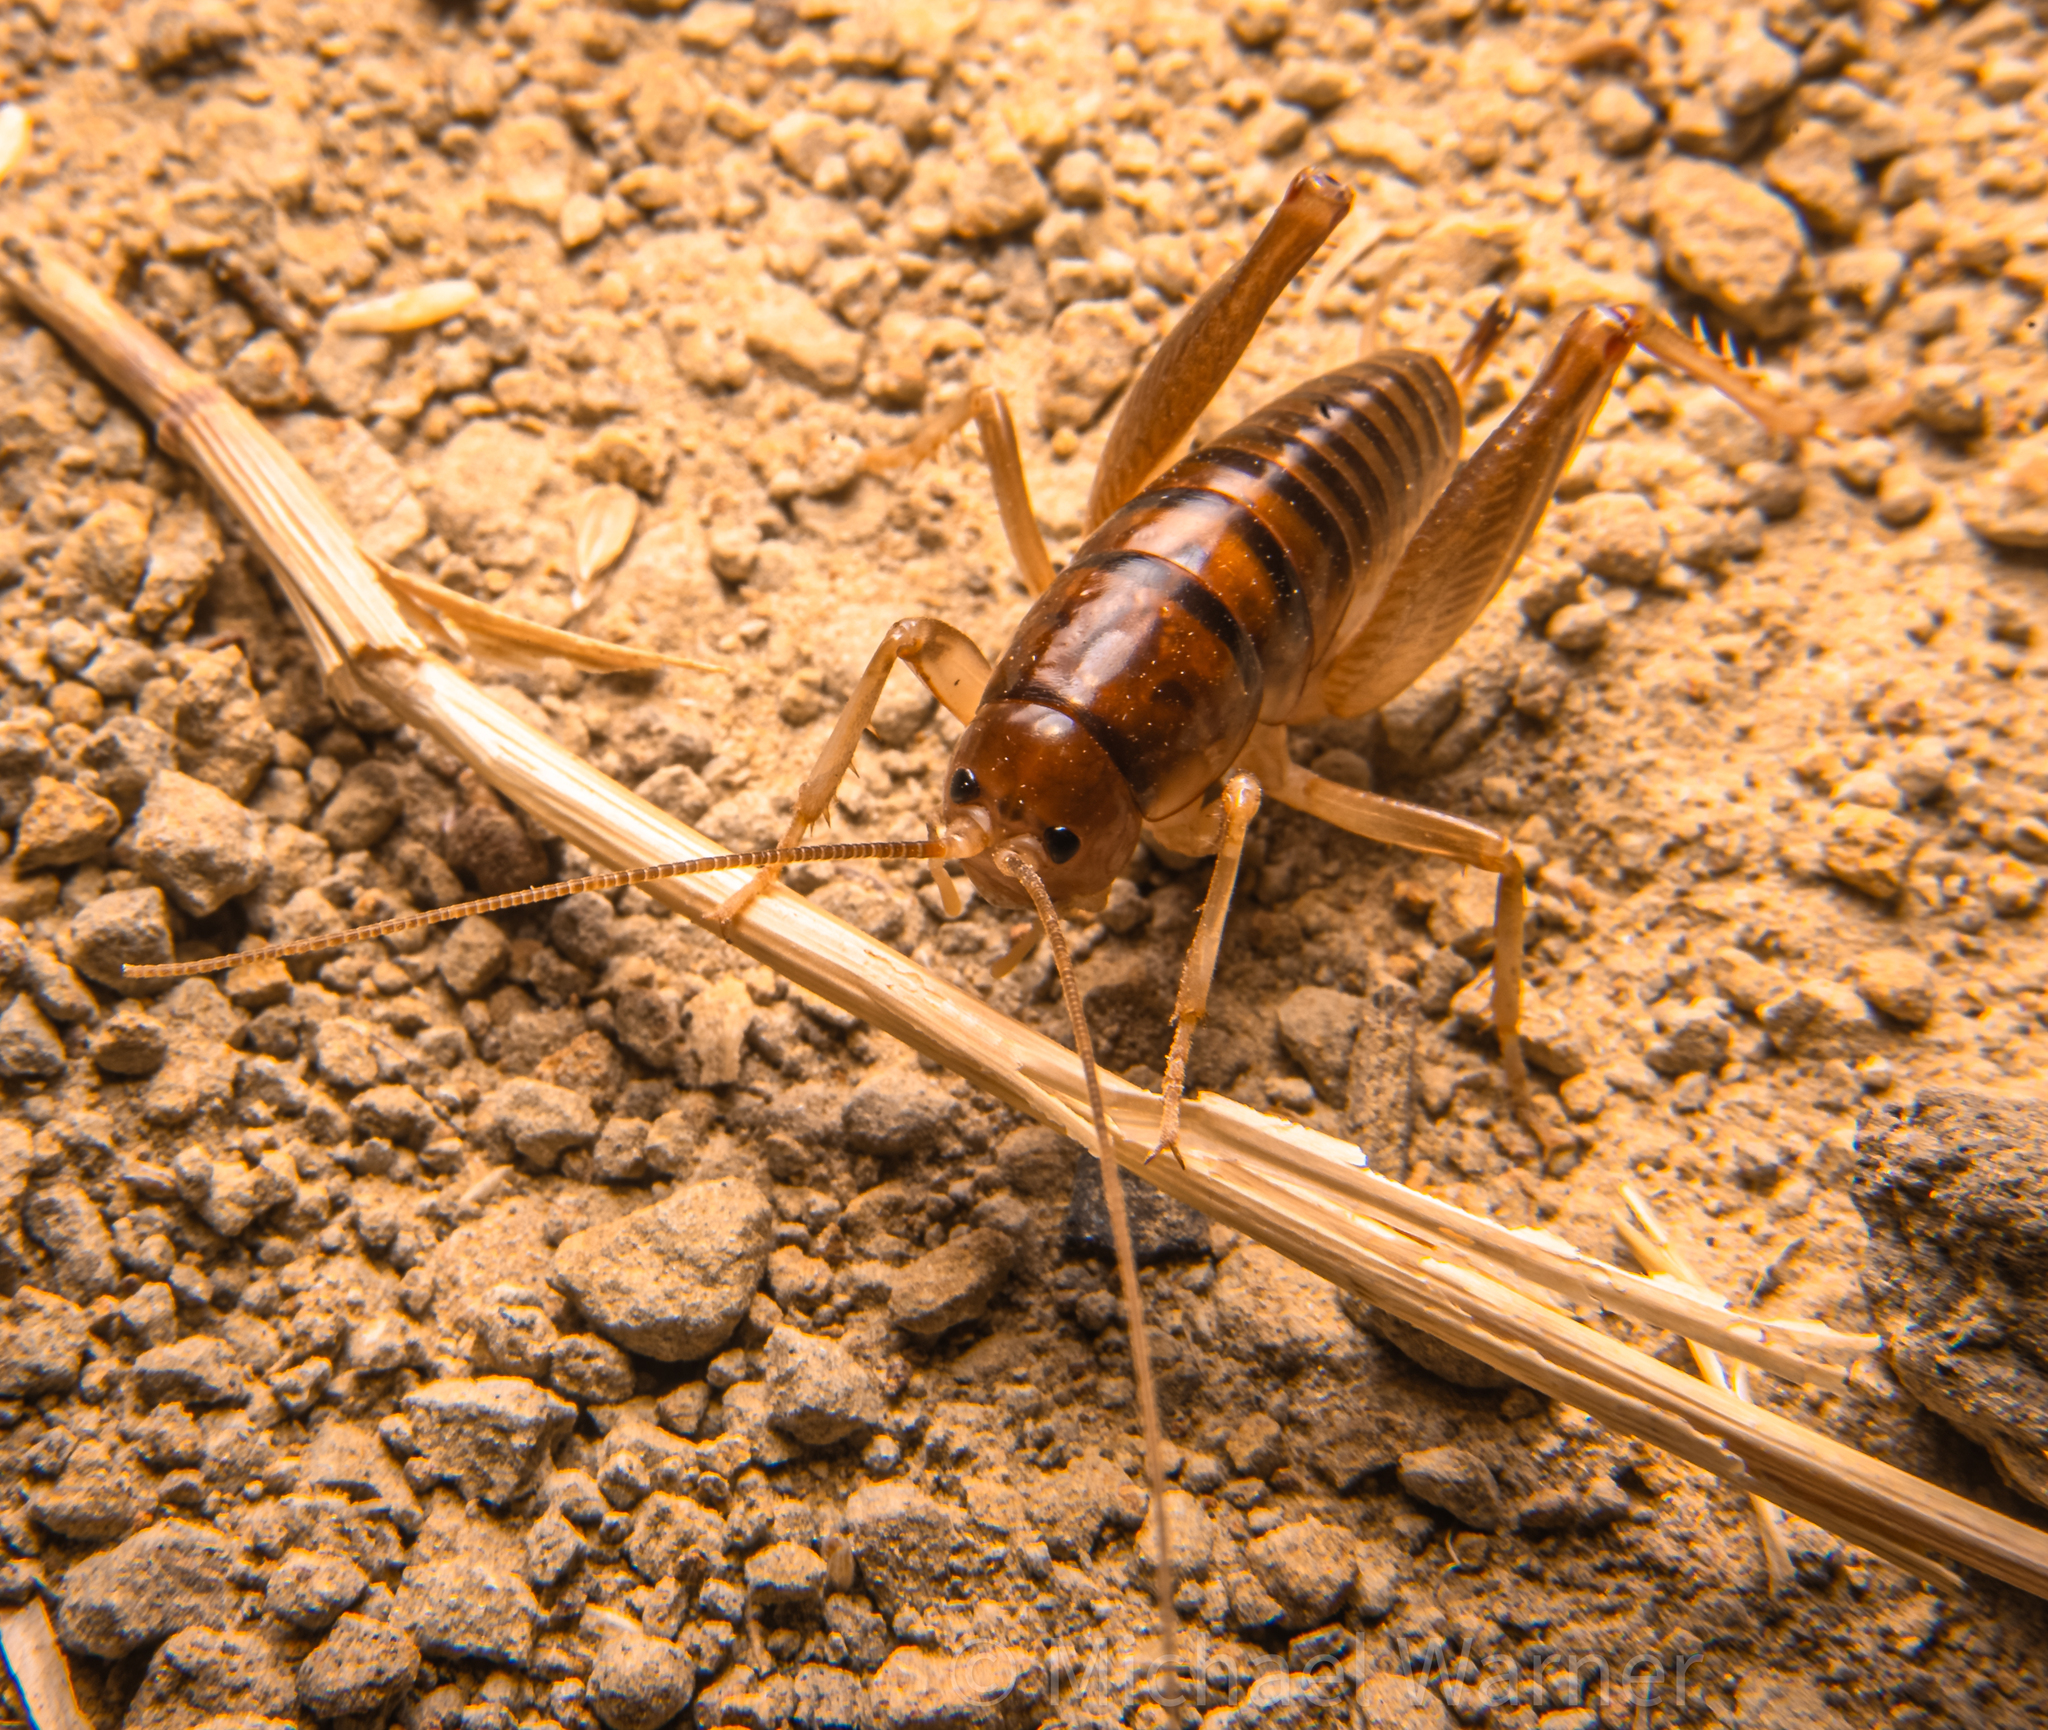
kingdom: Animalia
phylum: Arthropoda
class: Insecta
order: Orthoptera
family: Rhaphidophoridae
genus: Ceuthophilus
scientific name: Ceuthophilus californianus
